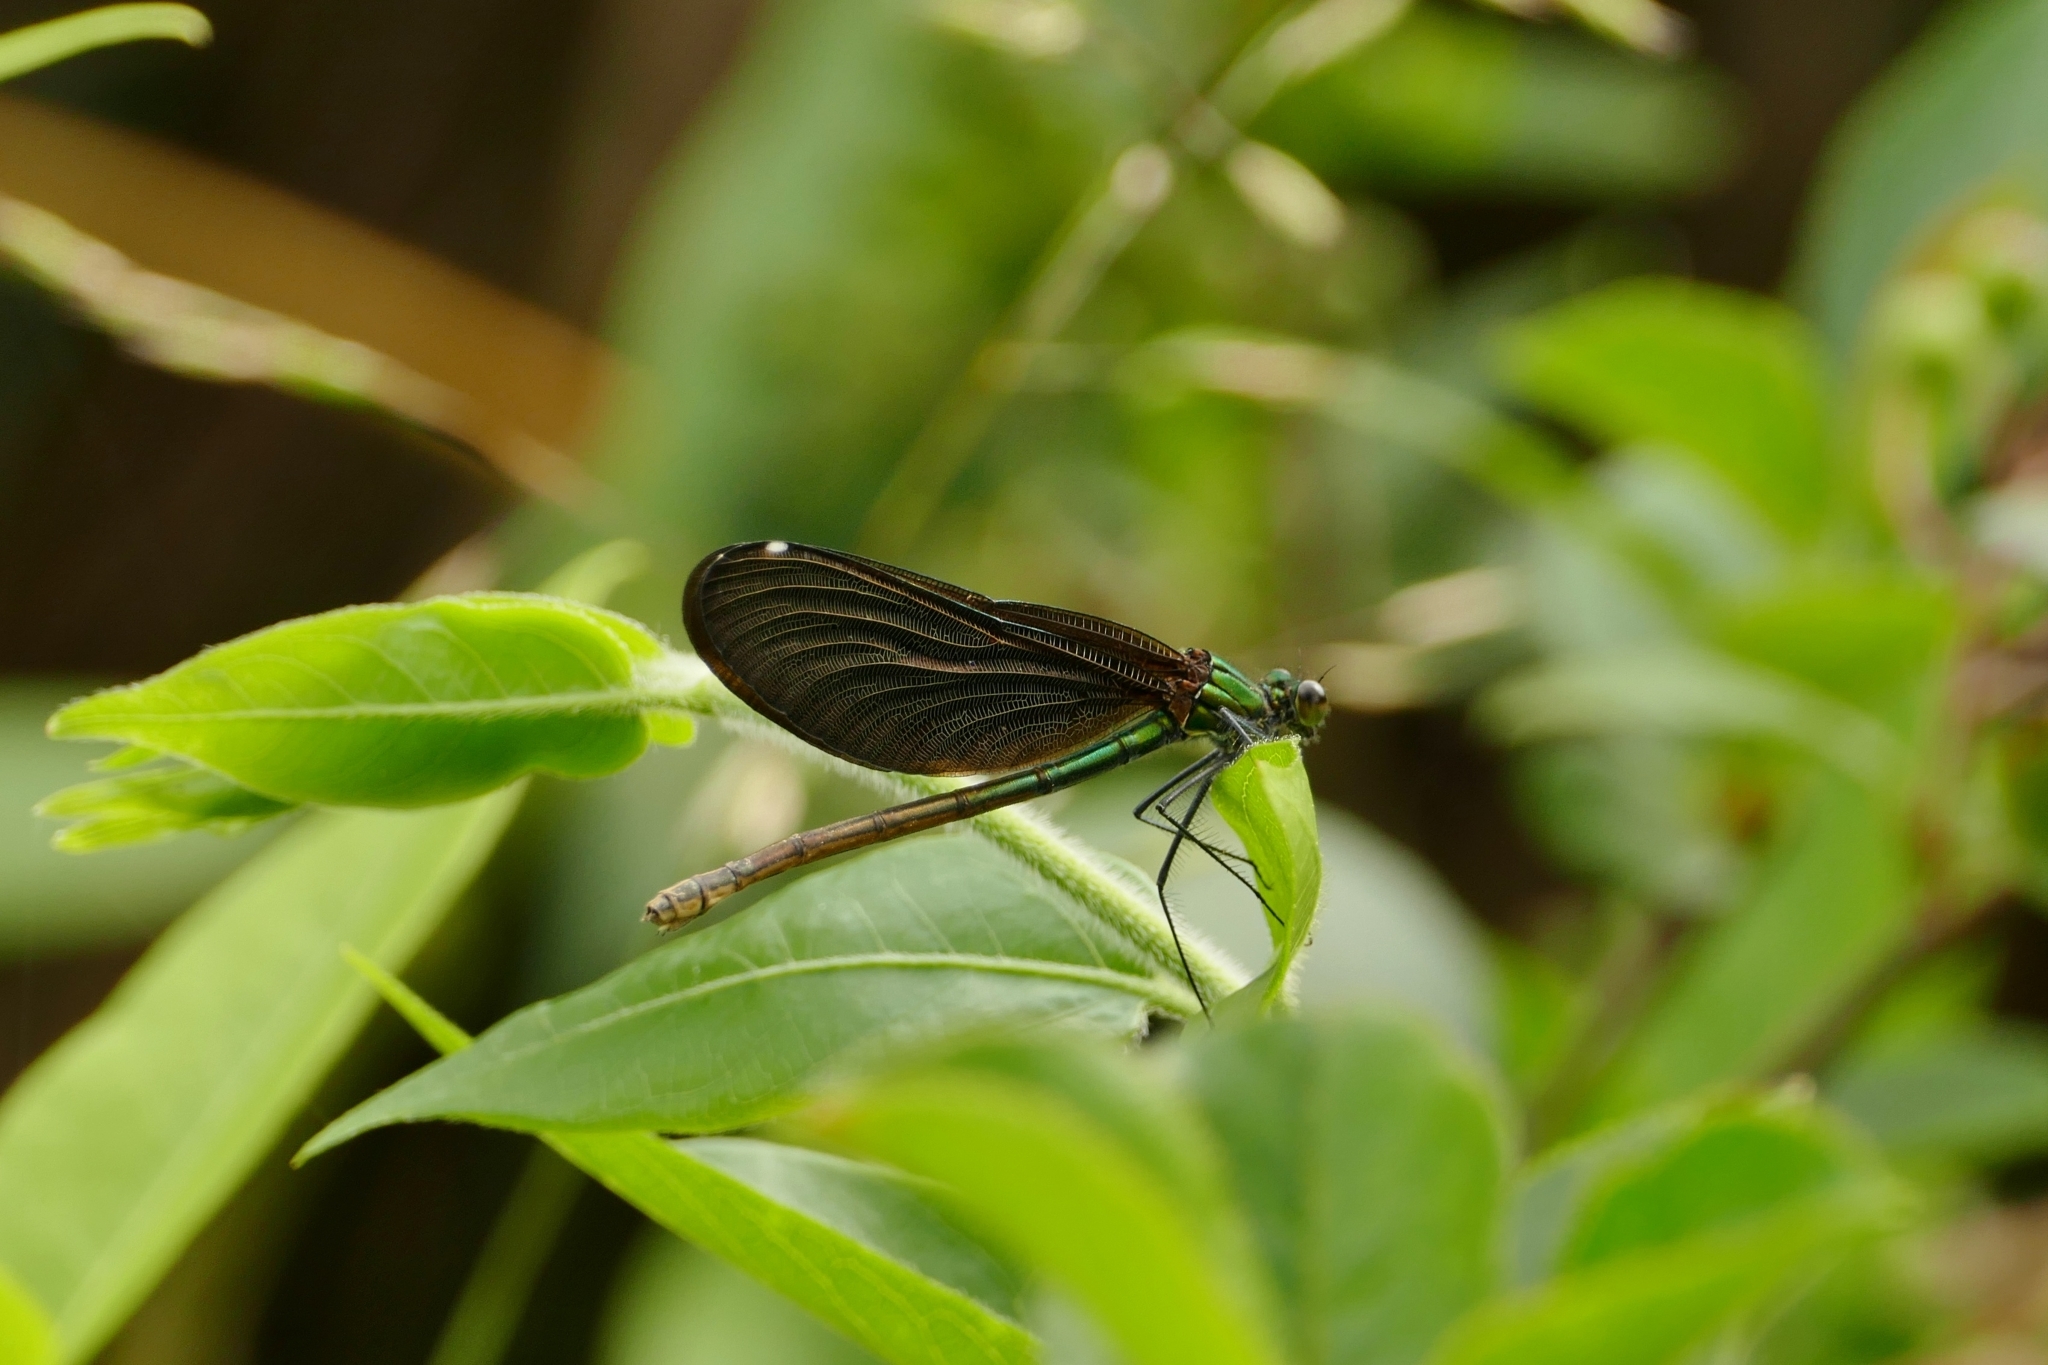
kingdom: Animalia
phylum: Arthropoda
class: Insecta
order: Odonata
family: Calopterygidae
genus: Calopteryx
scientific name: Calopteryx virgo
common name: Beautiful demoiselle
